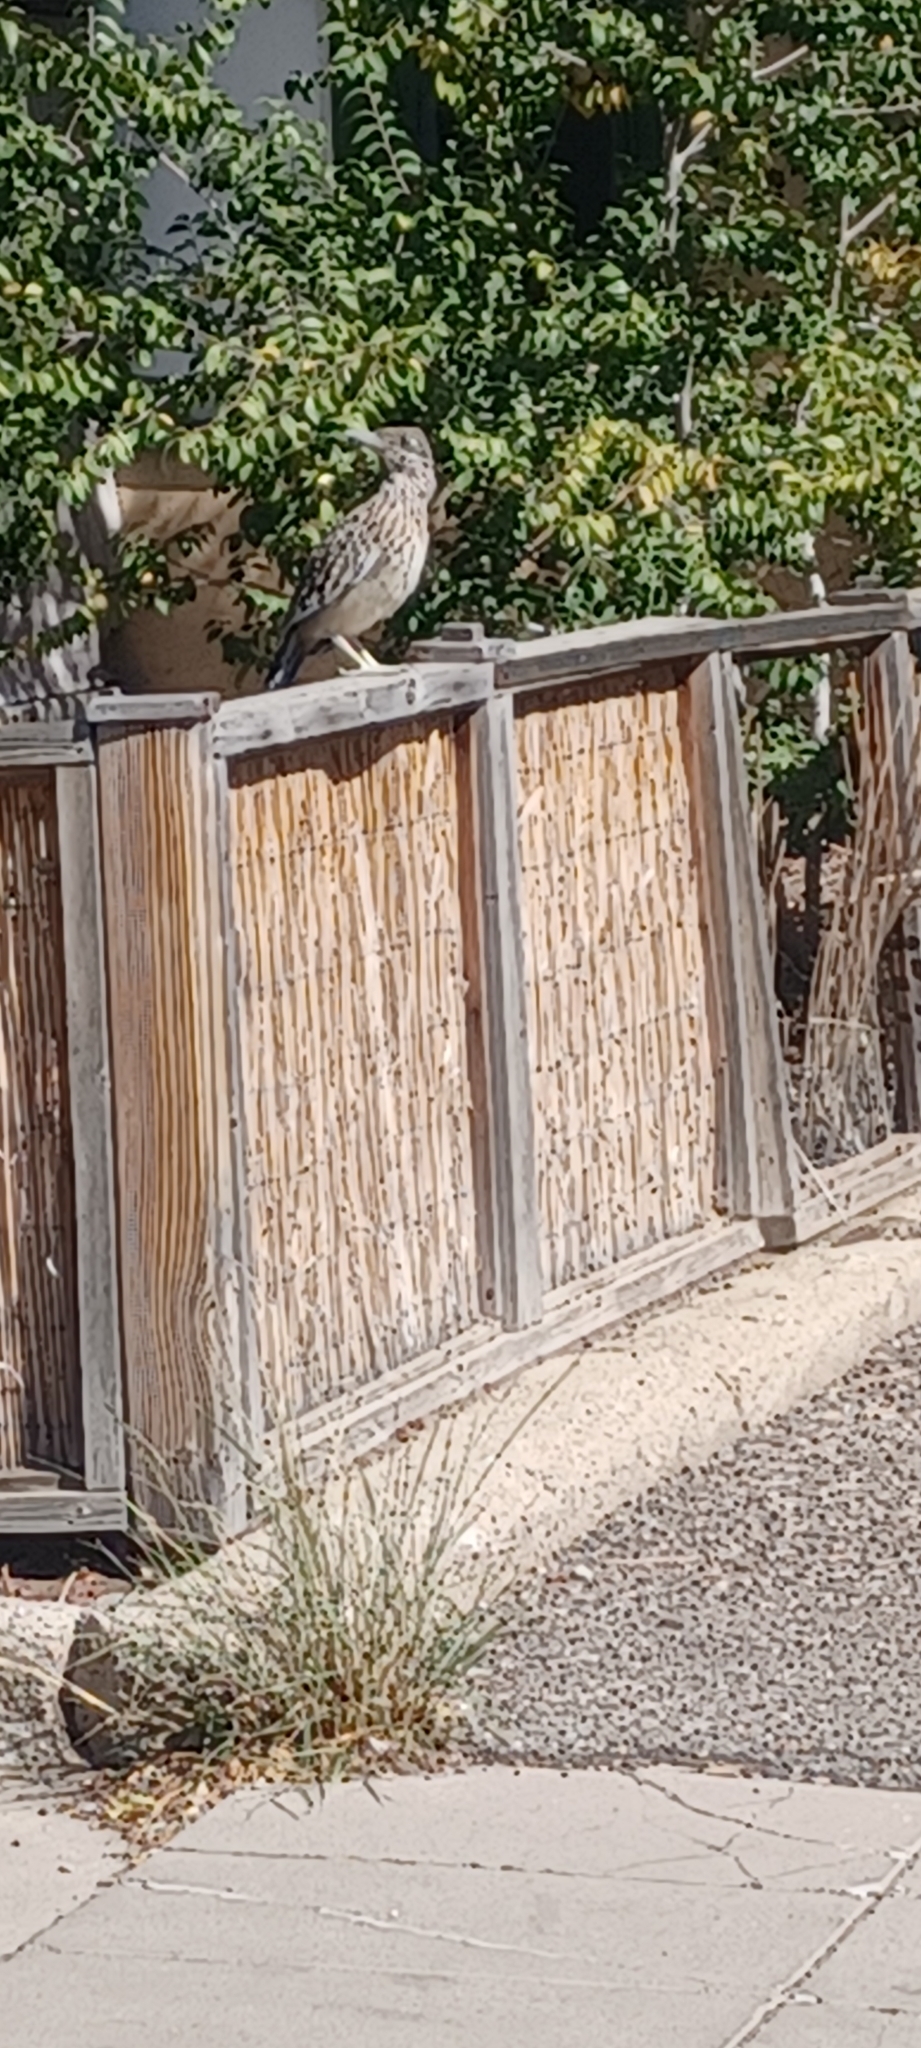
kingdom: Animalia
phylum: Chordata
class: Aves
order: Cuculiformes
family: Cuculidae
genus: Geococcyx
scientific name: Geococcyx californianus
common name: Greater roadrunner
